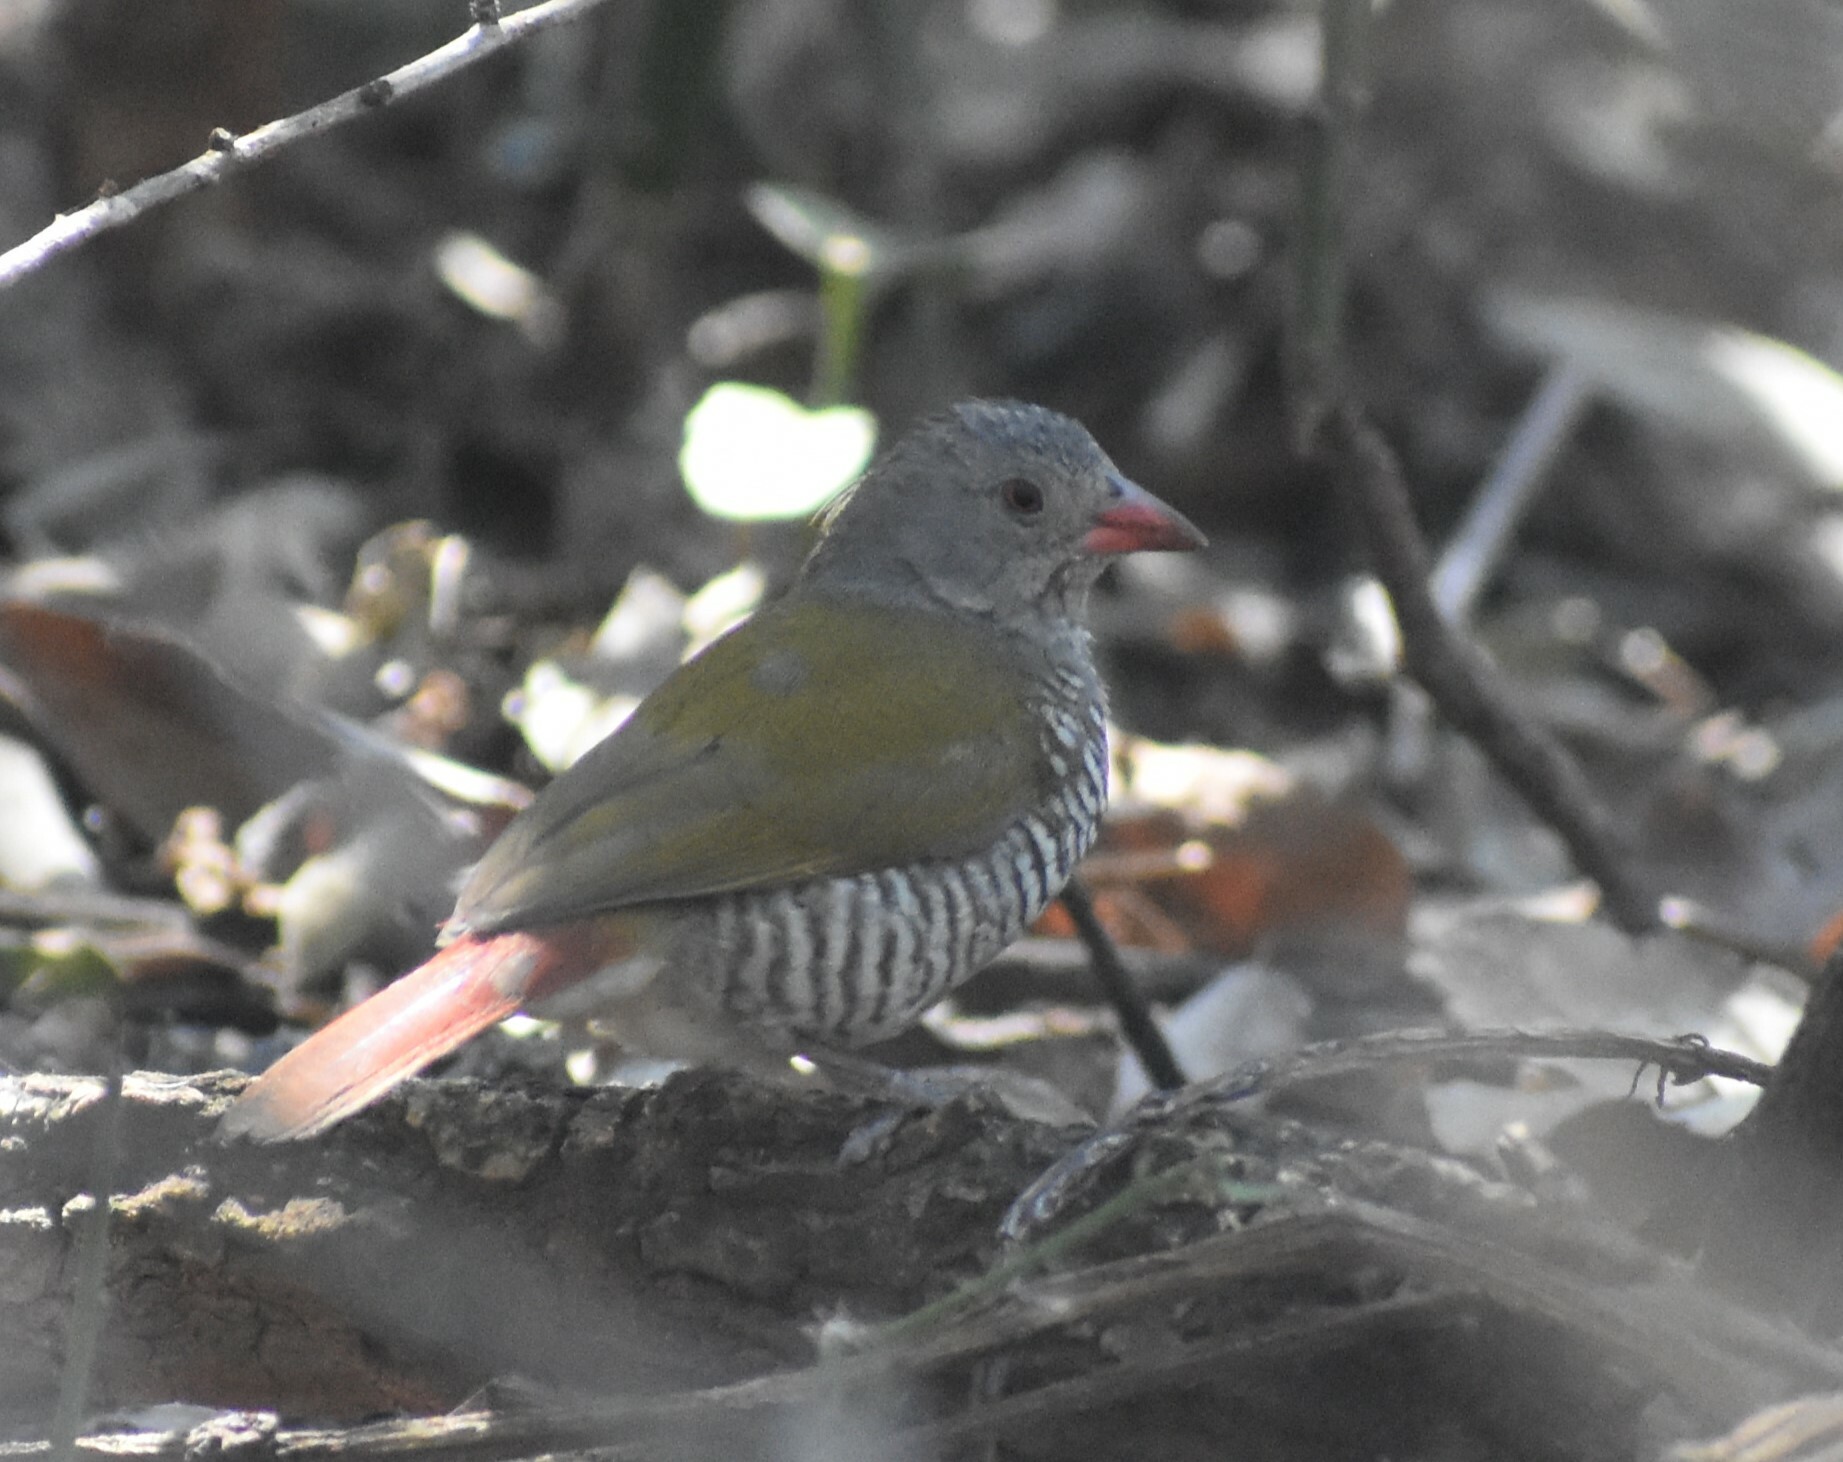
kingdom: Animalia
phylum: Chordata
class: Aves
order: Passeriformes
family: Estrildidae
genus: Pytilia
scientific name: Pytilia melba
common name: Green-winged pytilia
